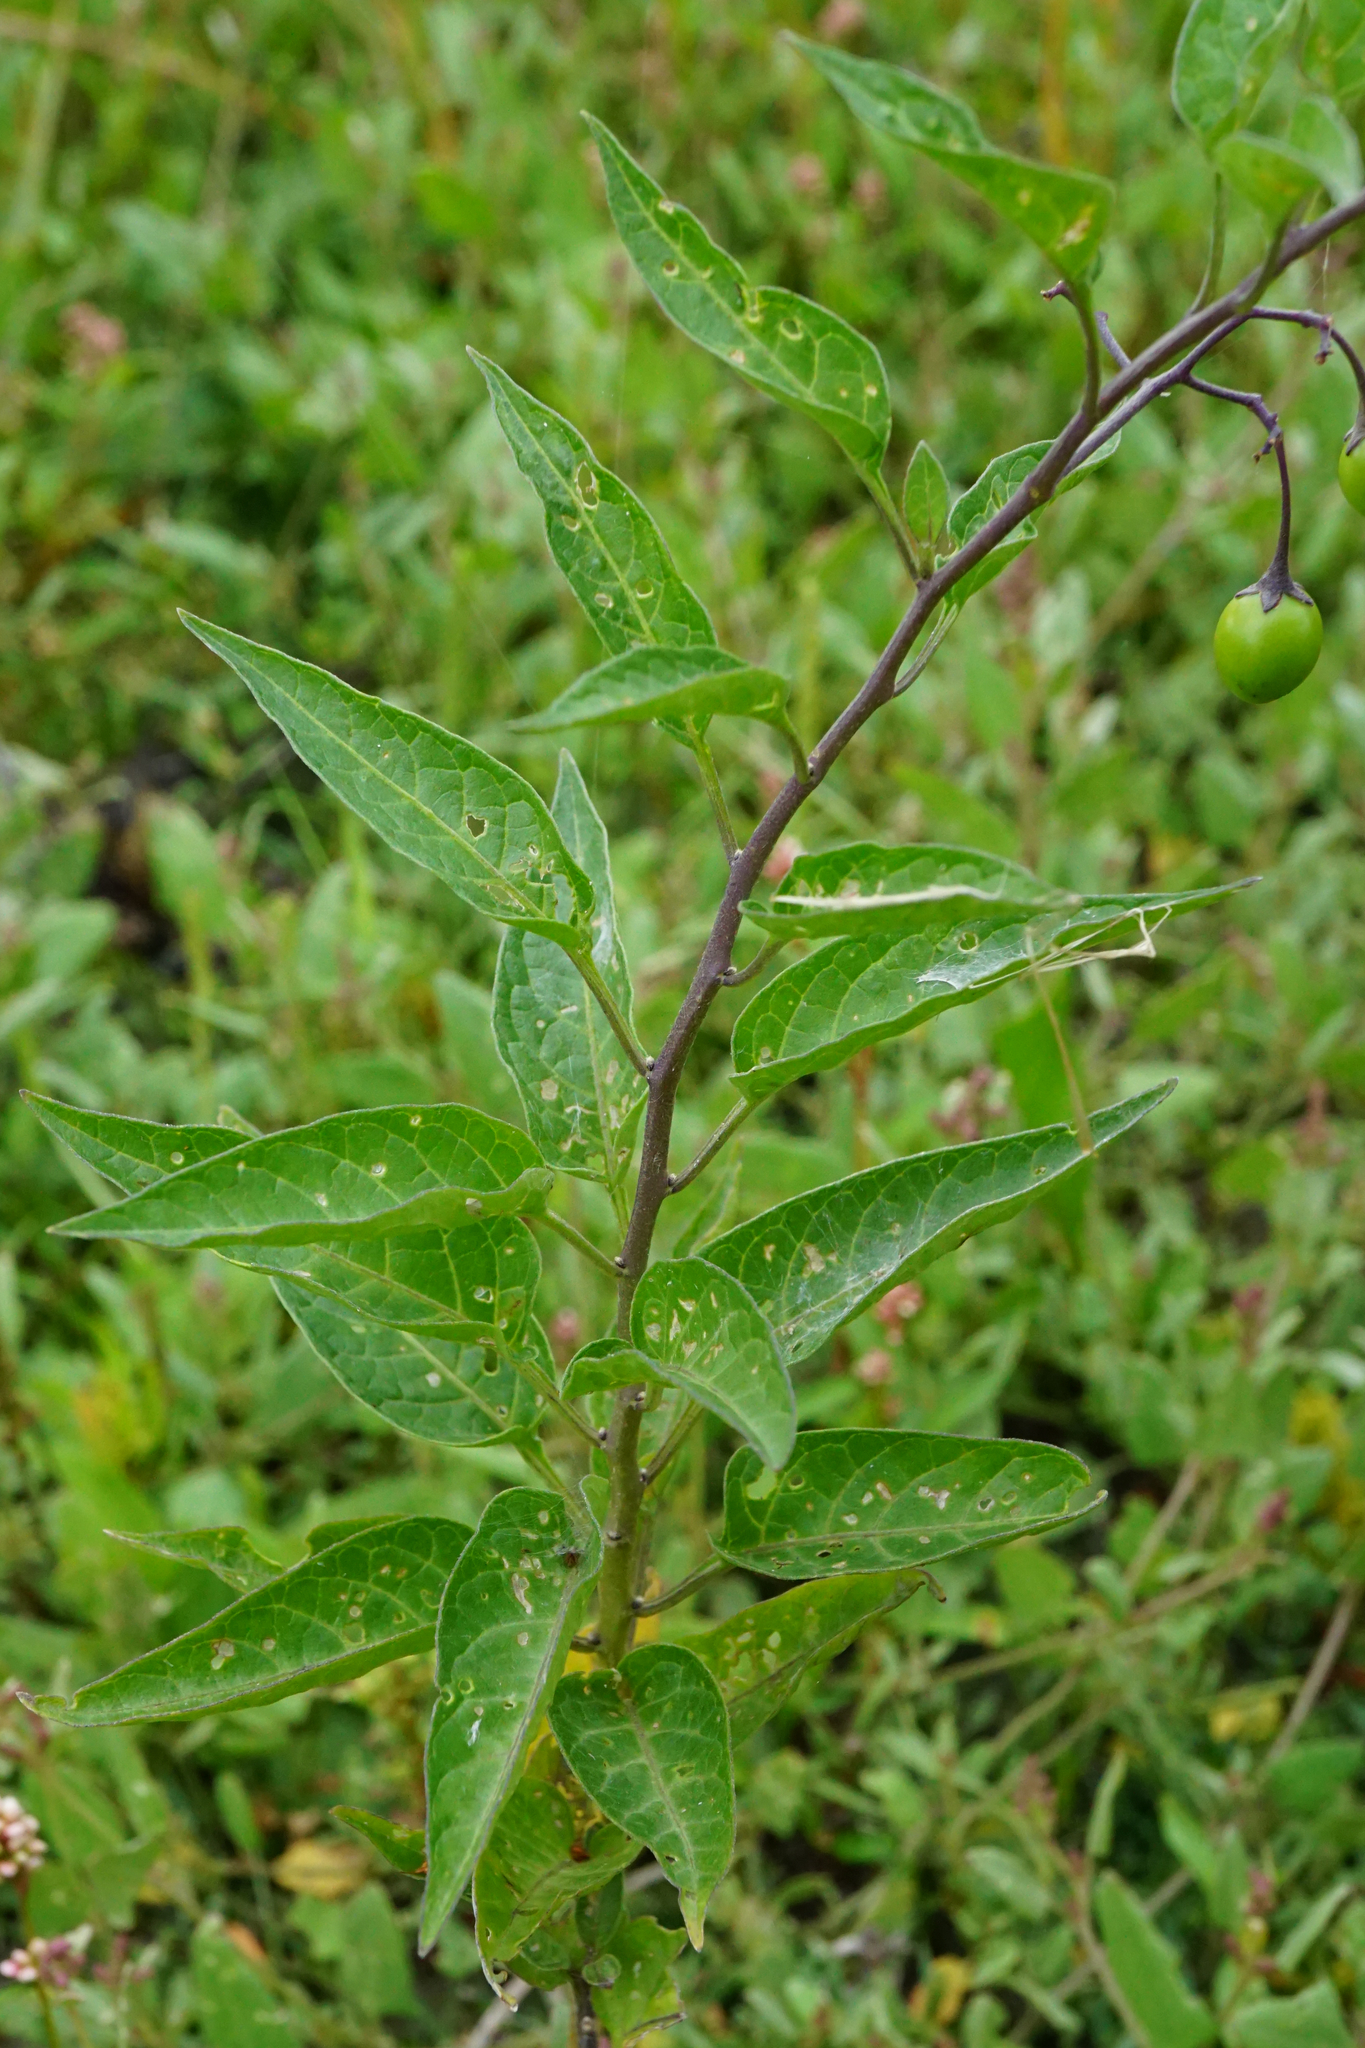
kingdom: Plantae
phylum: Tracheophyta
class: Magnoliopsida
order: Solanales
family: Solanaceae
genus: Solanum
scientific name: Solanum dulcamara
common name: Climbing nightshade
